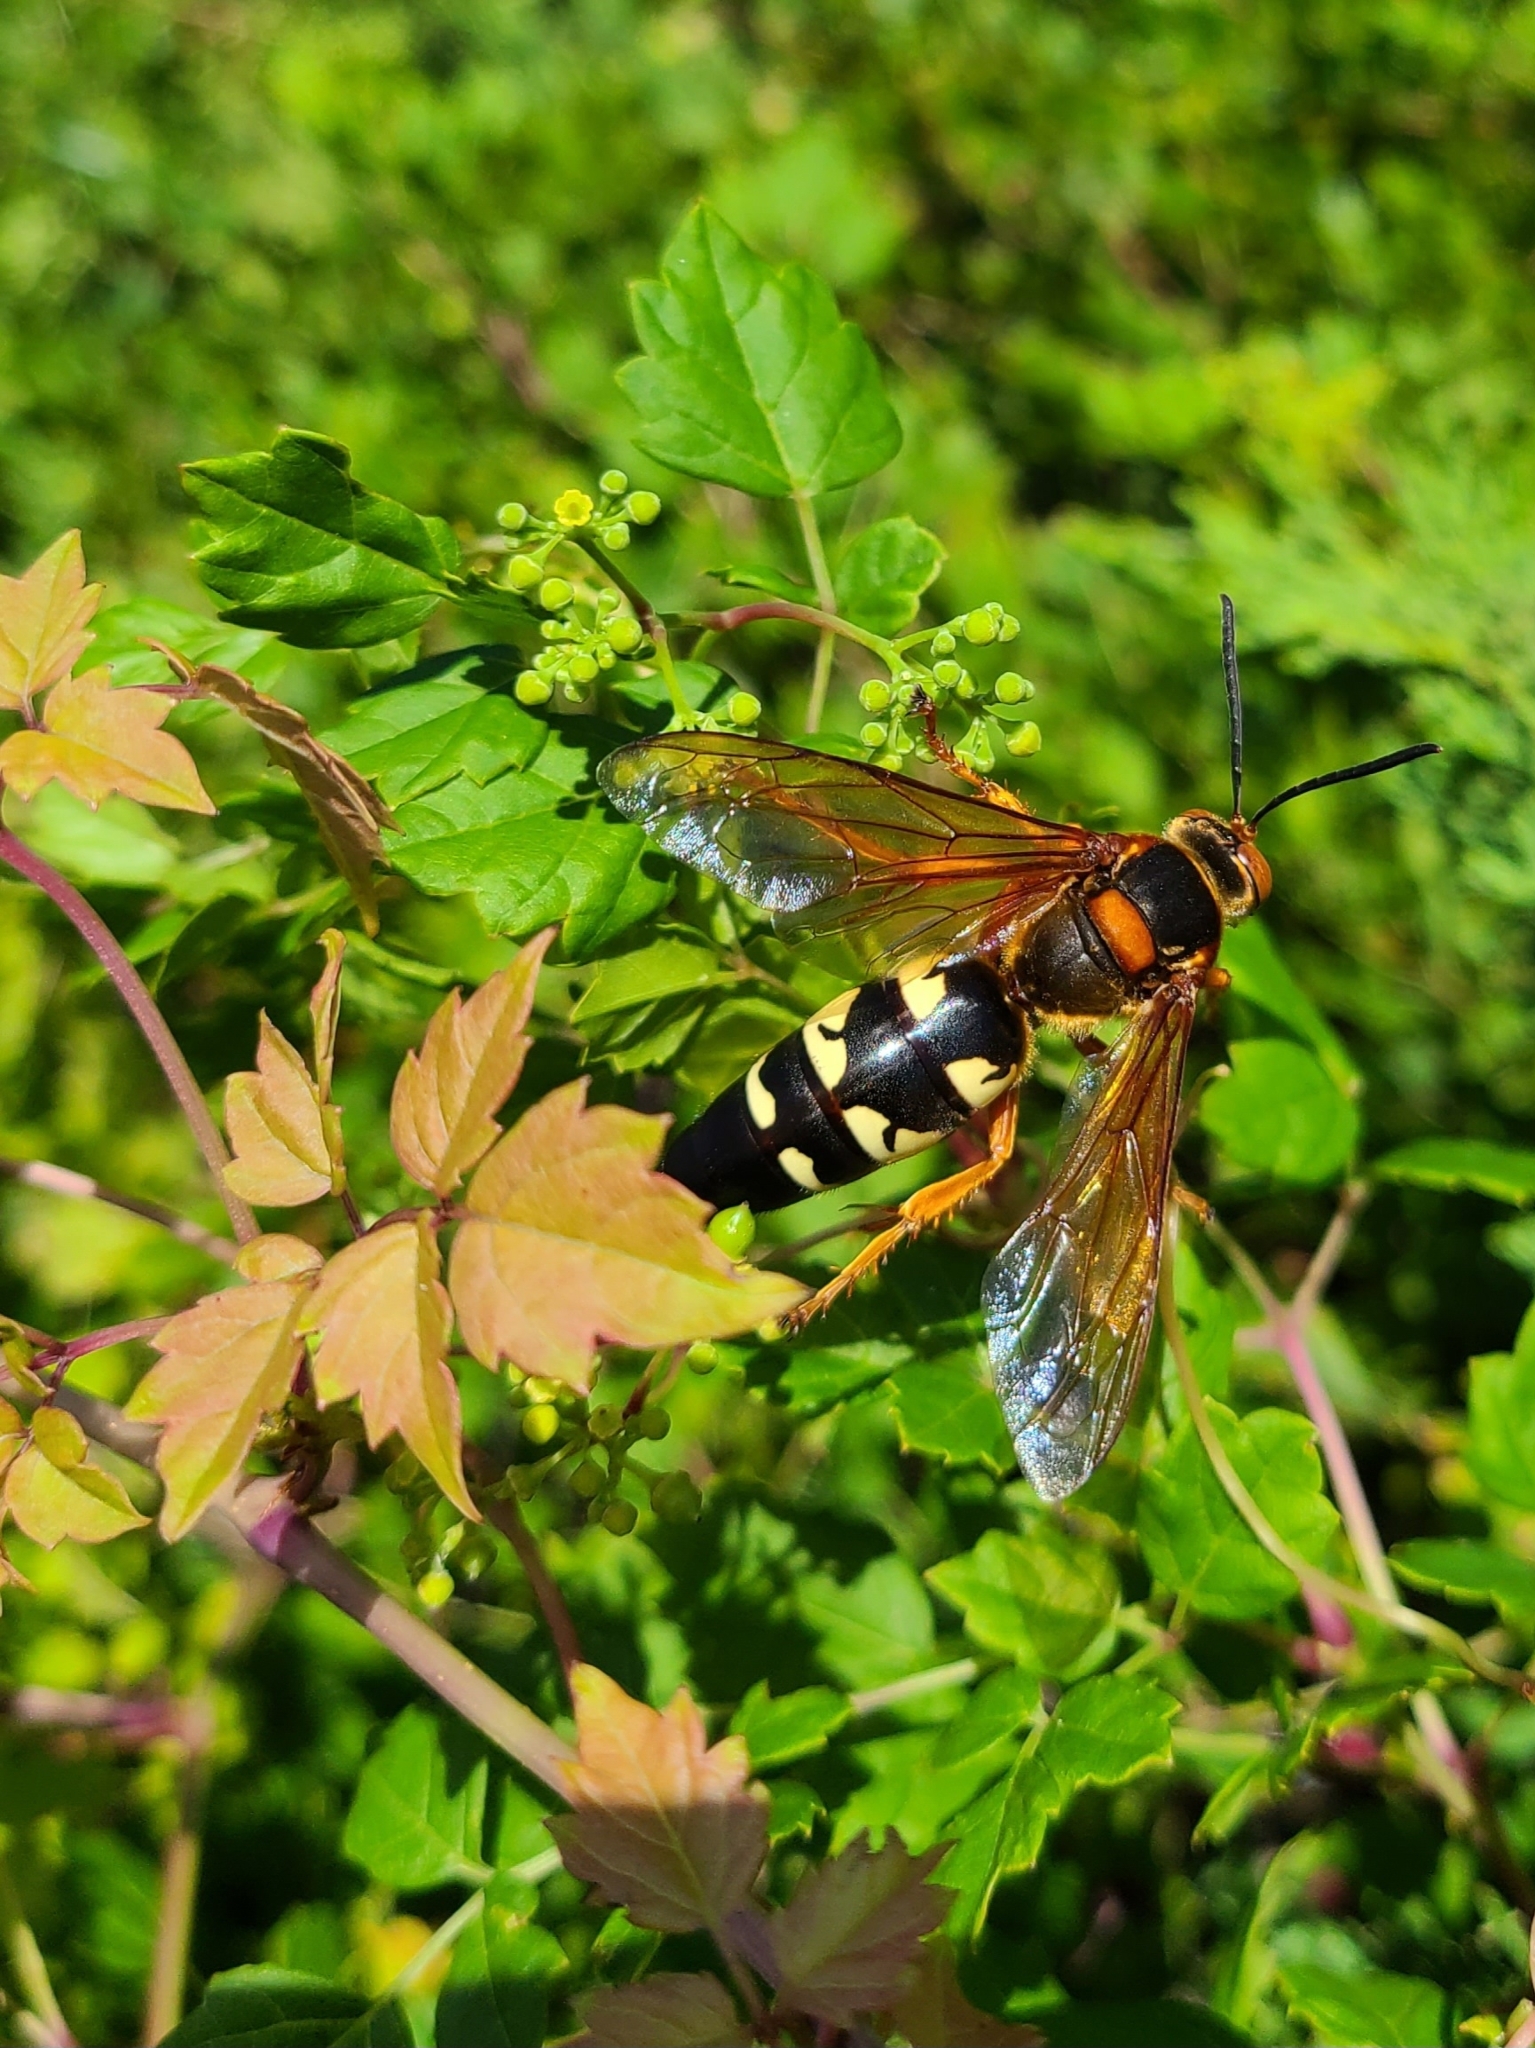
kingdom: Animalia
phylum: Arthropoda
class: Insecta
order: Hymenoptera
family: Crabronidae
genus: Sphecius
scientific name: Sphecius speciosus
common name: Cicada killer
